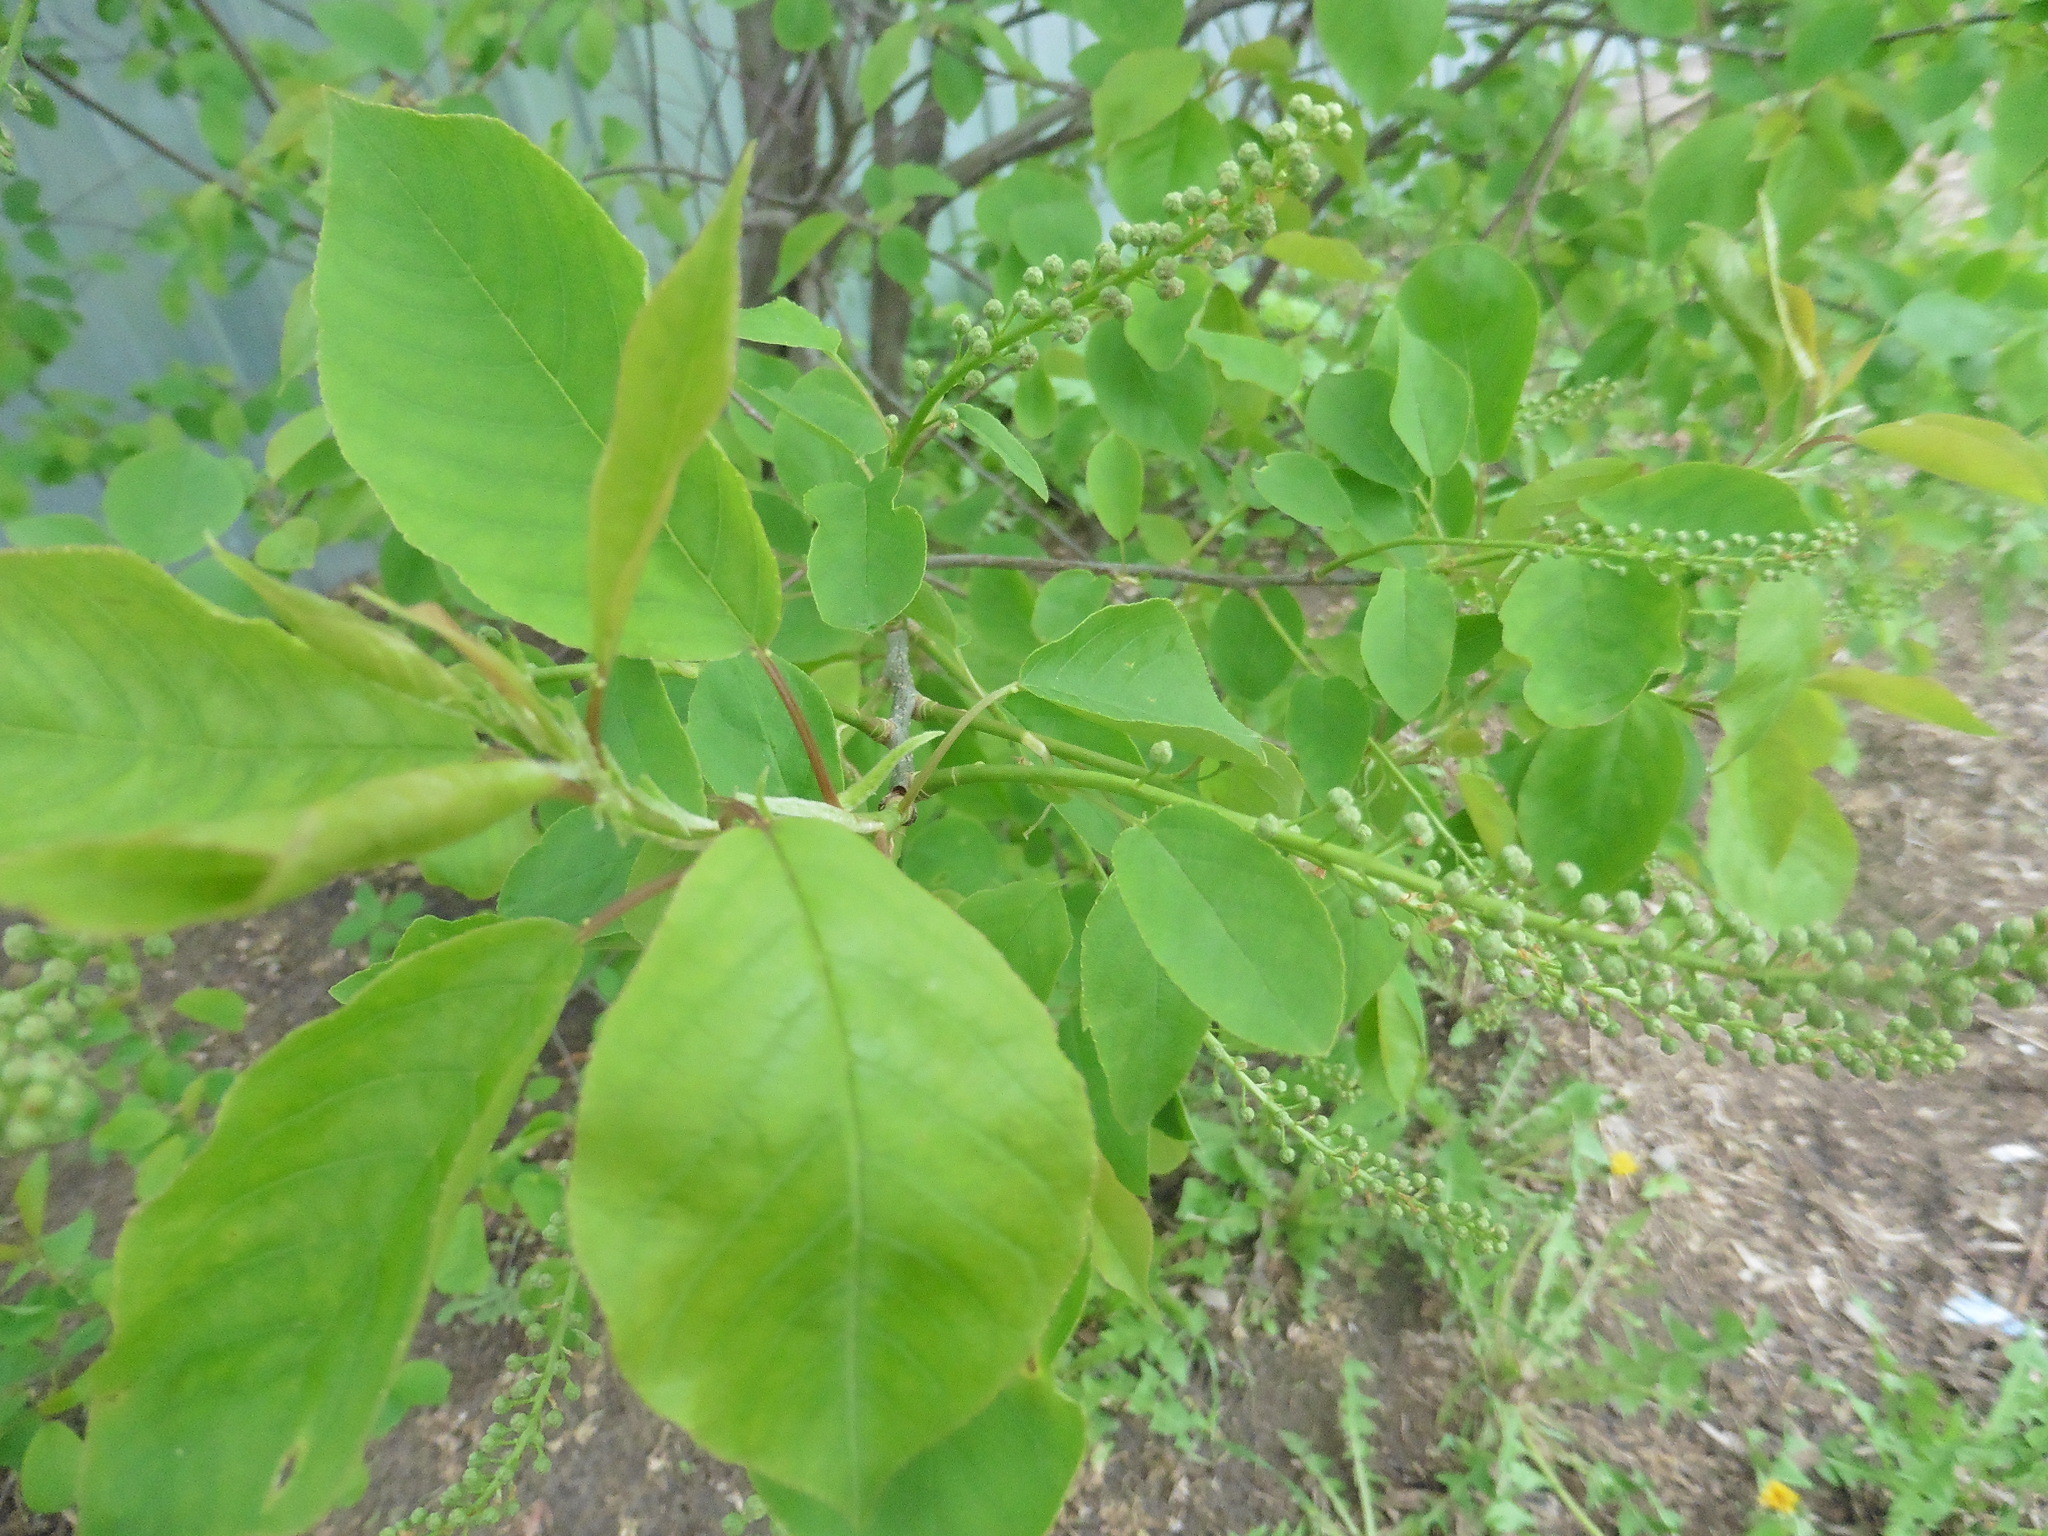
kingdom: Plantae
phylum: Tracheophyta
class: Magnoliopsida
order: Rosales
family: Rosaceae
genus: Prunus
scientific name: Prunus virginiana
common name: Chokecherry
